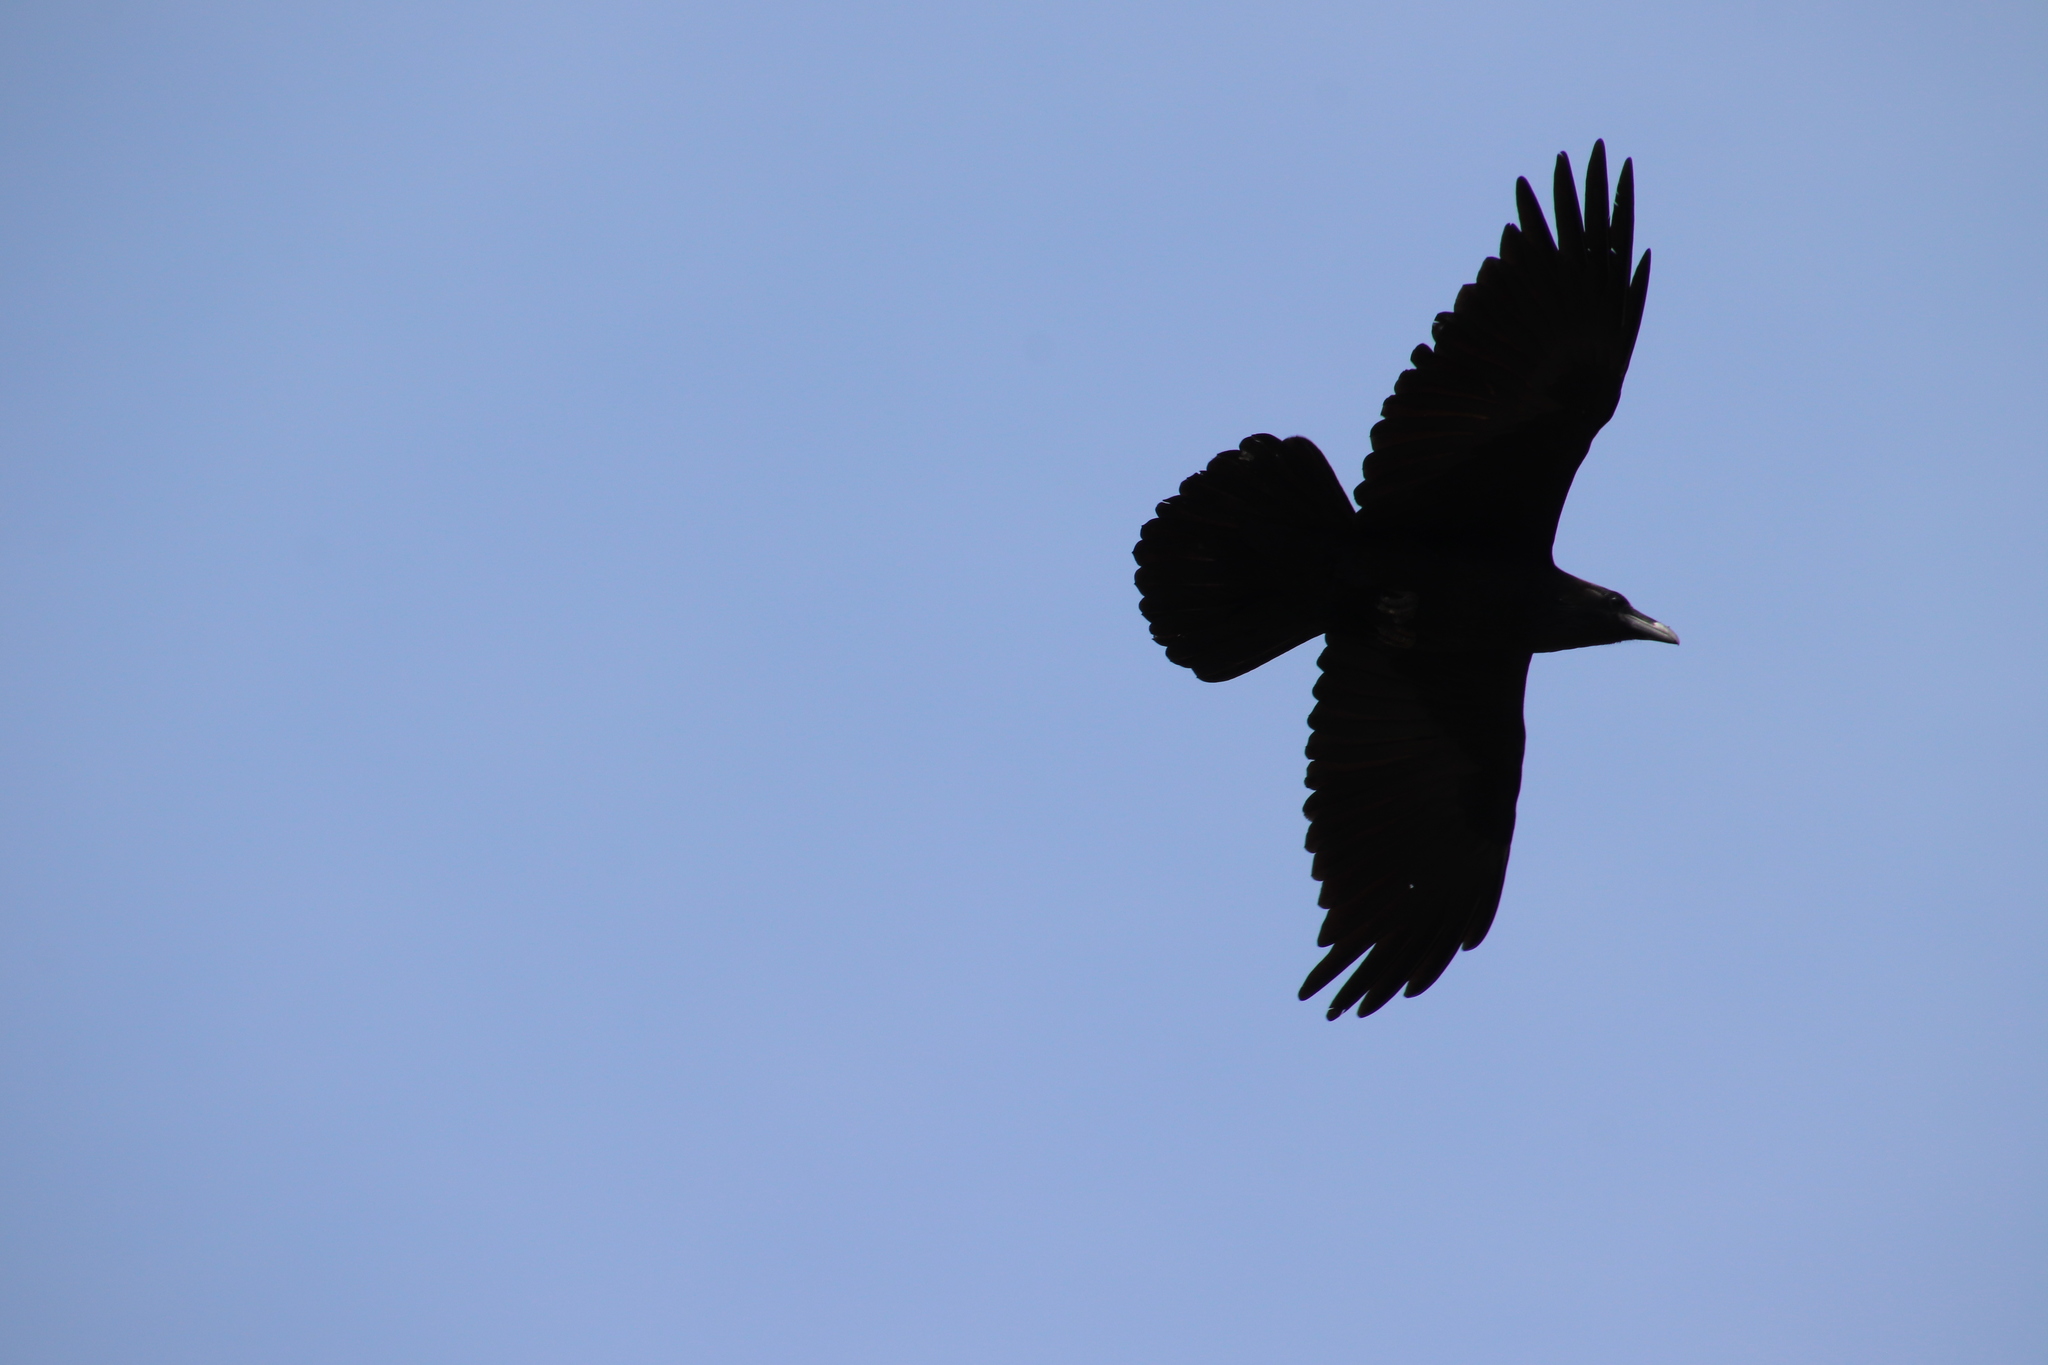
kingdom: Animalia
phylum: Chordata
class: Aves
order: Passeriformes
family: Corvidae
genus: Corvus
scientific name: Corvus corax
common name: Common raven
